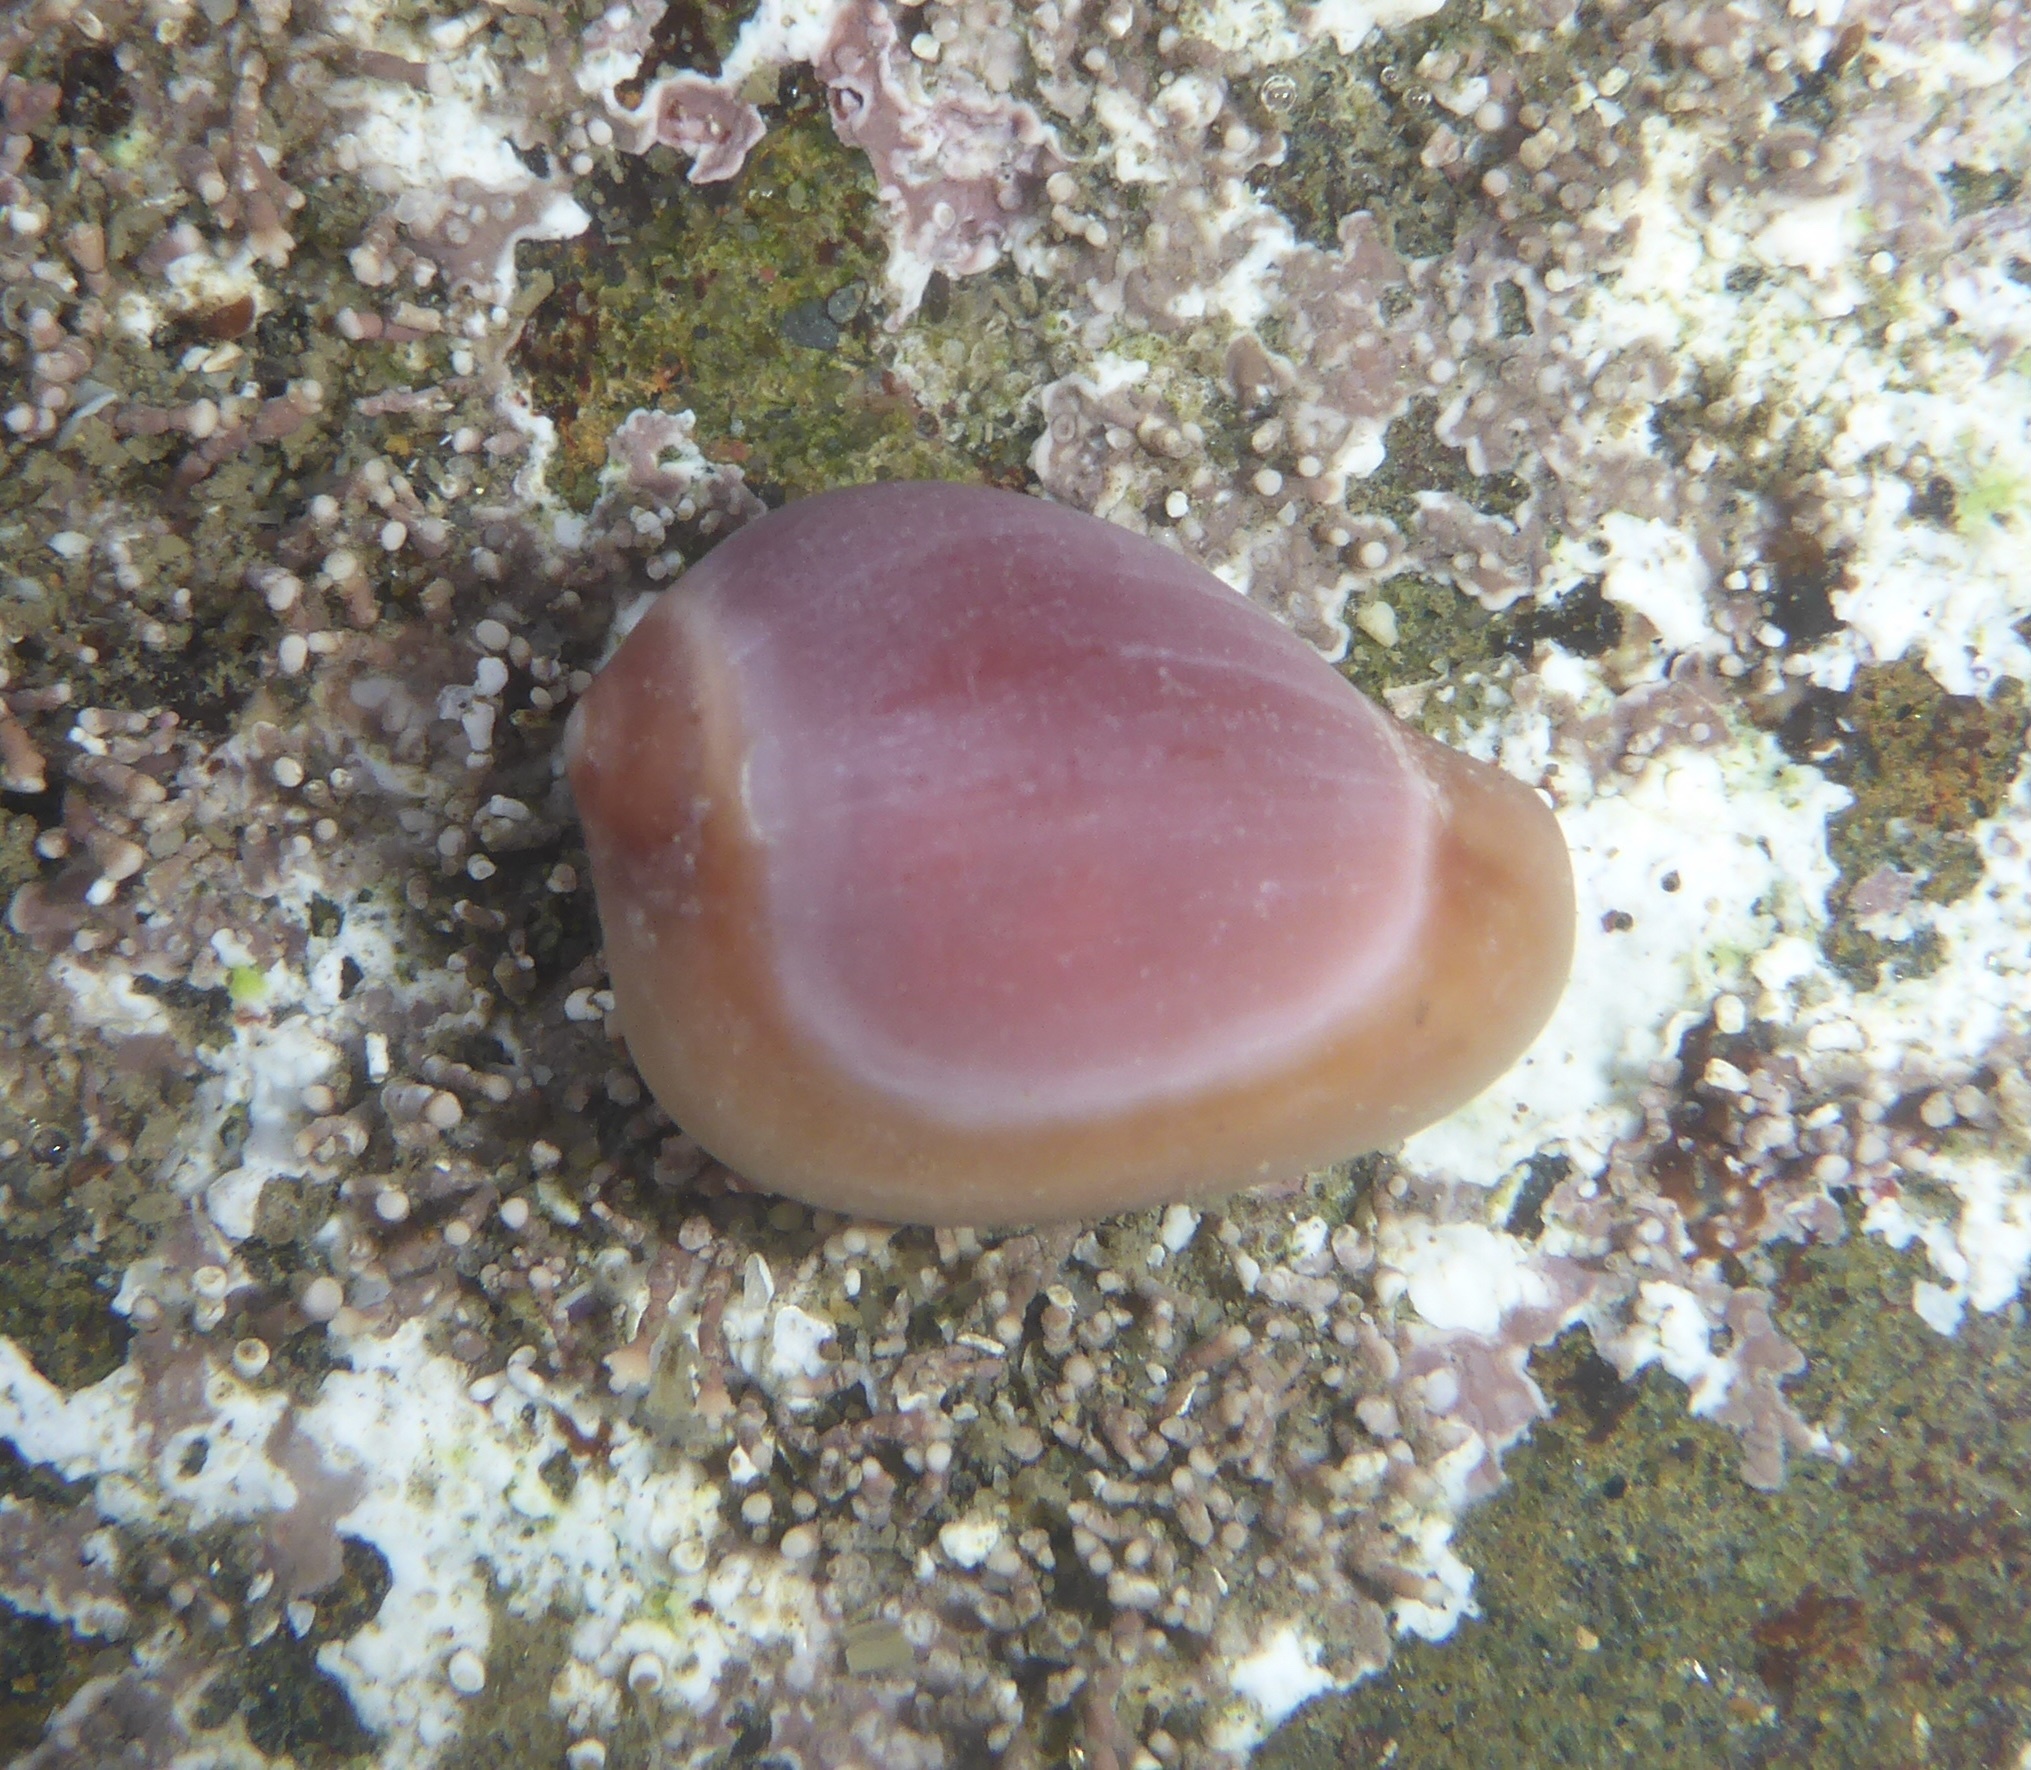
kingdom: Animalia
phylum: Mollusca
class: Gastropoda
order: Littorinimorpha
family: Eratoidae
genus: Hespererato
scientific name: Hespererato vitellina
